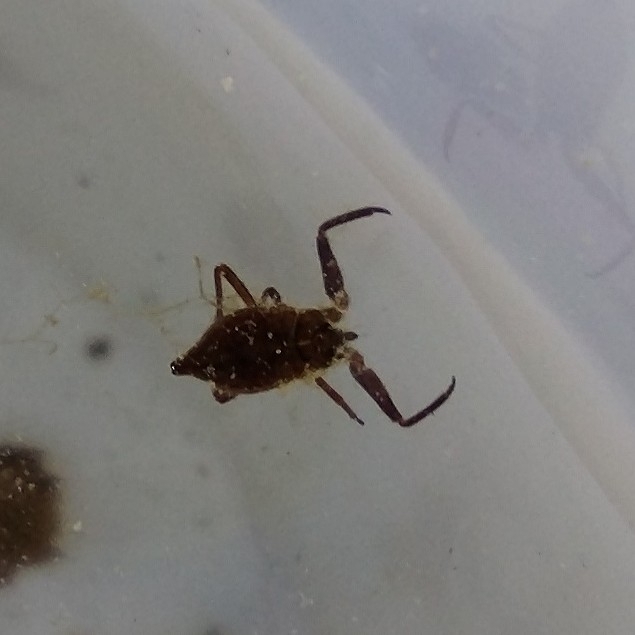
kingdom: Animalia
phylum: Arthropoda
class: Insecta
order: Hemiptera
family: Nepidae
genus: Nepa
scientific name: Nepa cinerea
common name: Water scorpion
